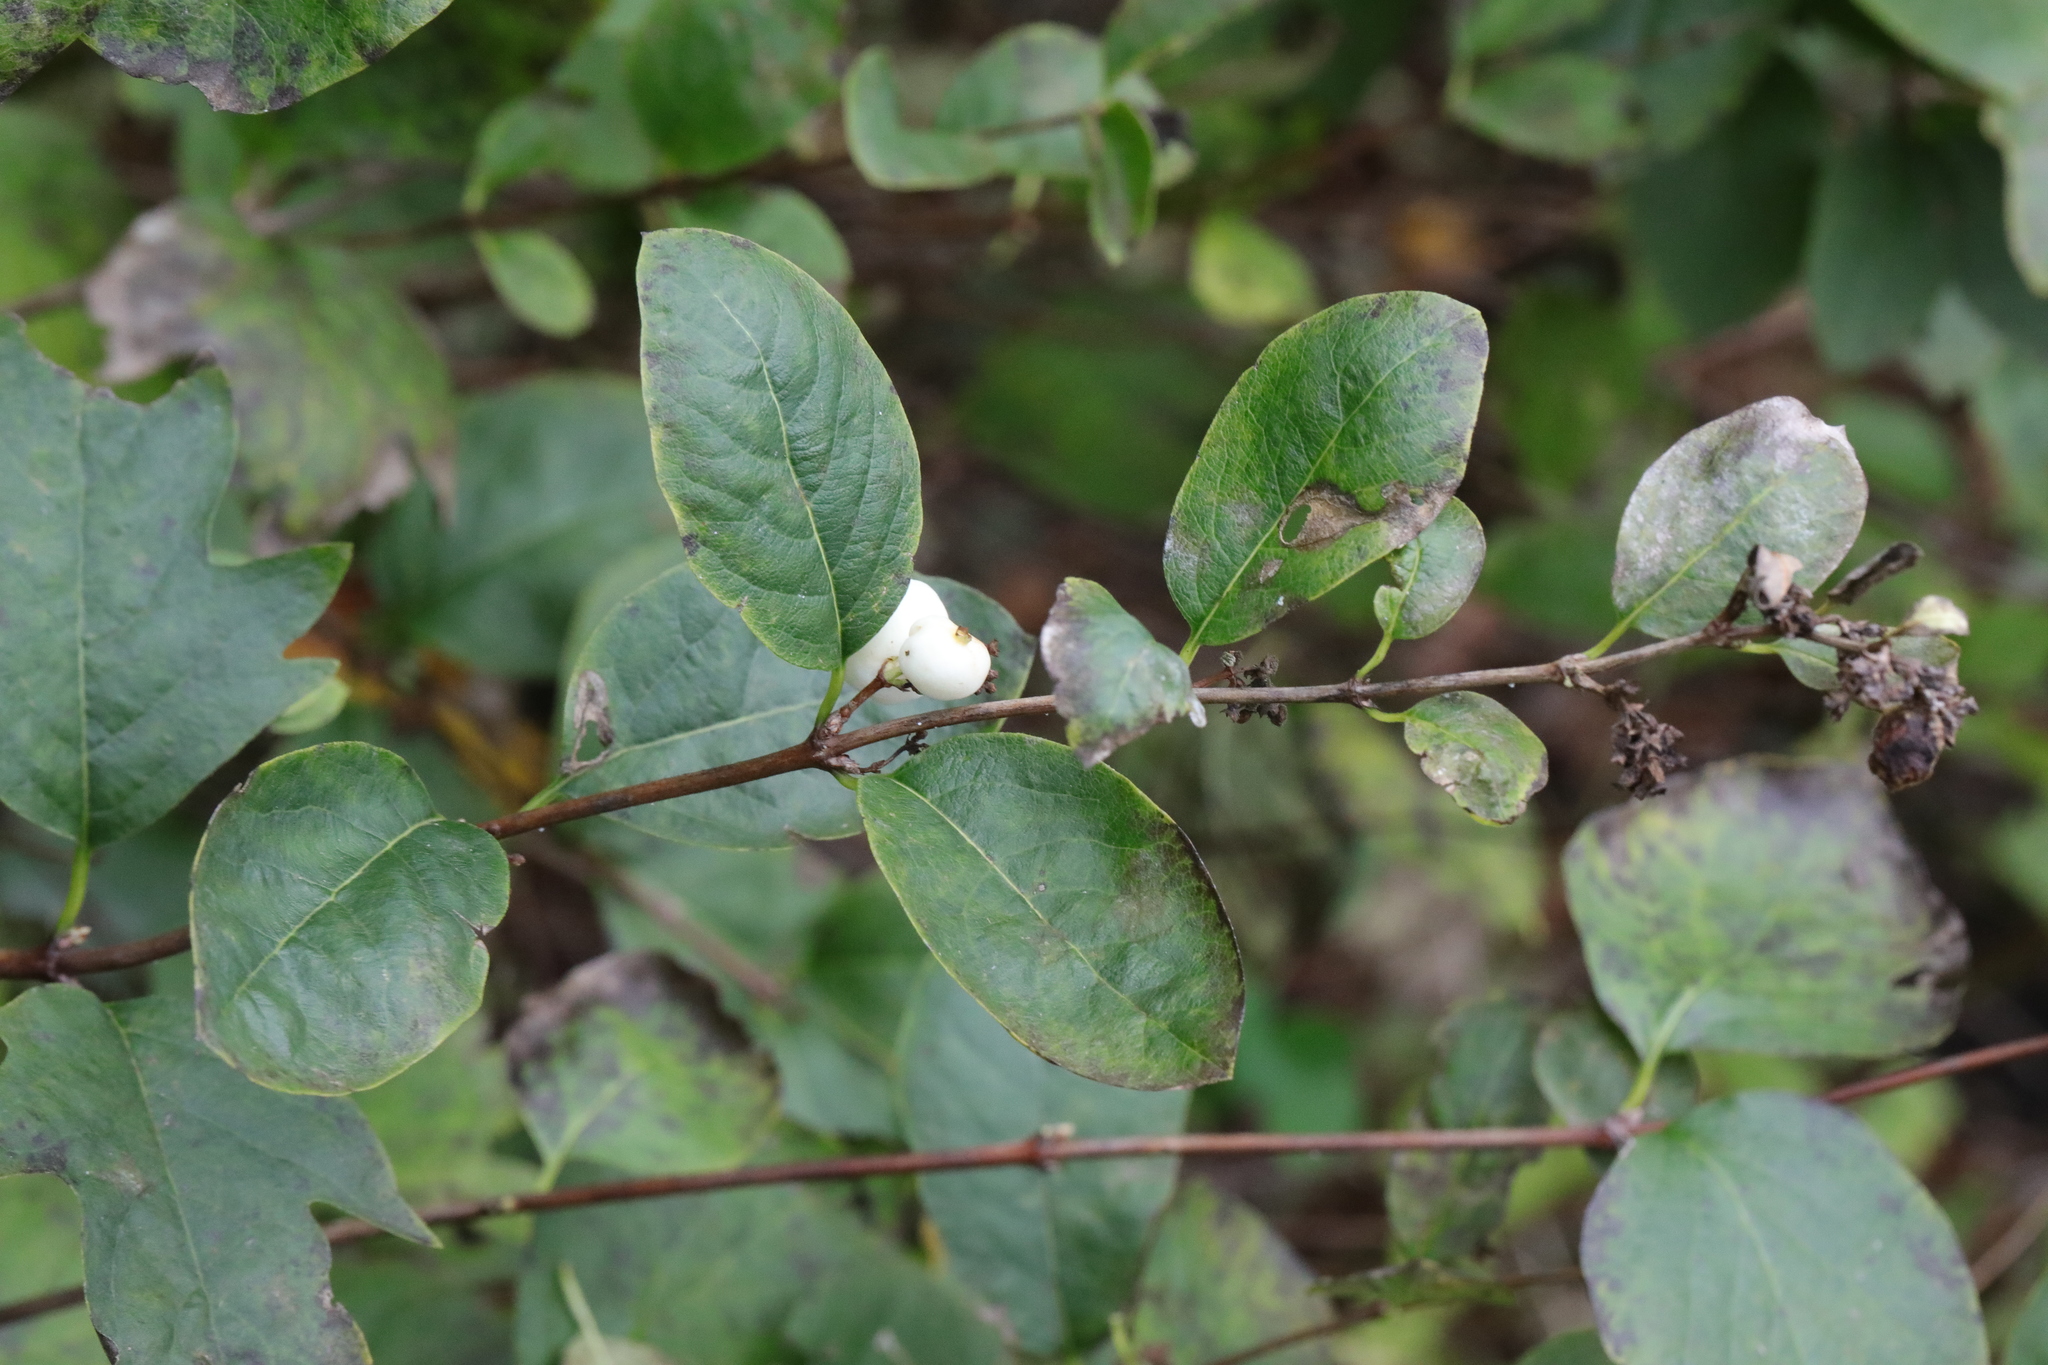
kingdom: Plantae
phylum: Tracheophyta
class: Magnoliopsida
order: Dipsacales
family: Caprifoliaceae
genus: Symphoricarpos
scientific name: Symphoricarpos albus
